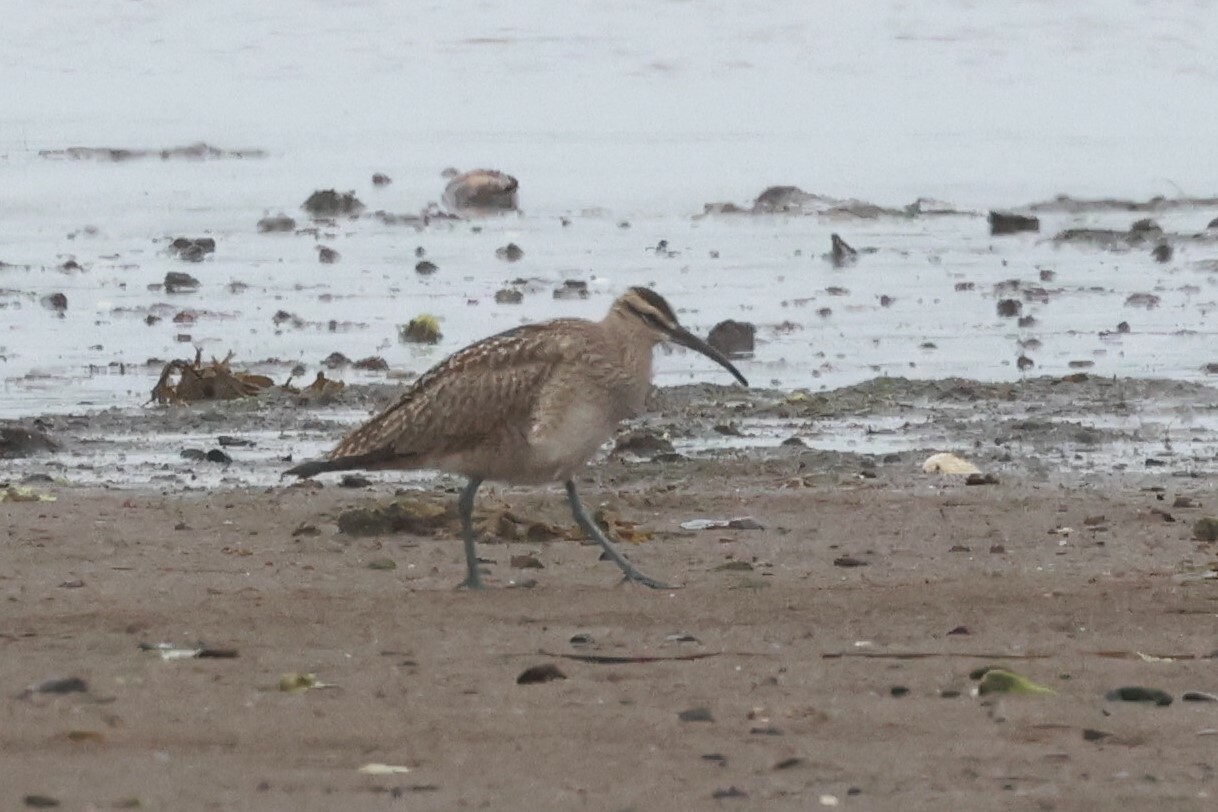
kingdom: Animalia
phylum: Chordata
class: Aves
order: Charadriiformes
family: Scolopacidae
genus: Numenius
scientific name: Numenius phaeopus
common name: Whimbrel
